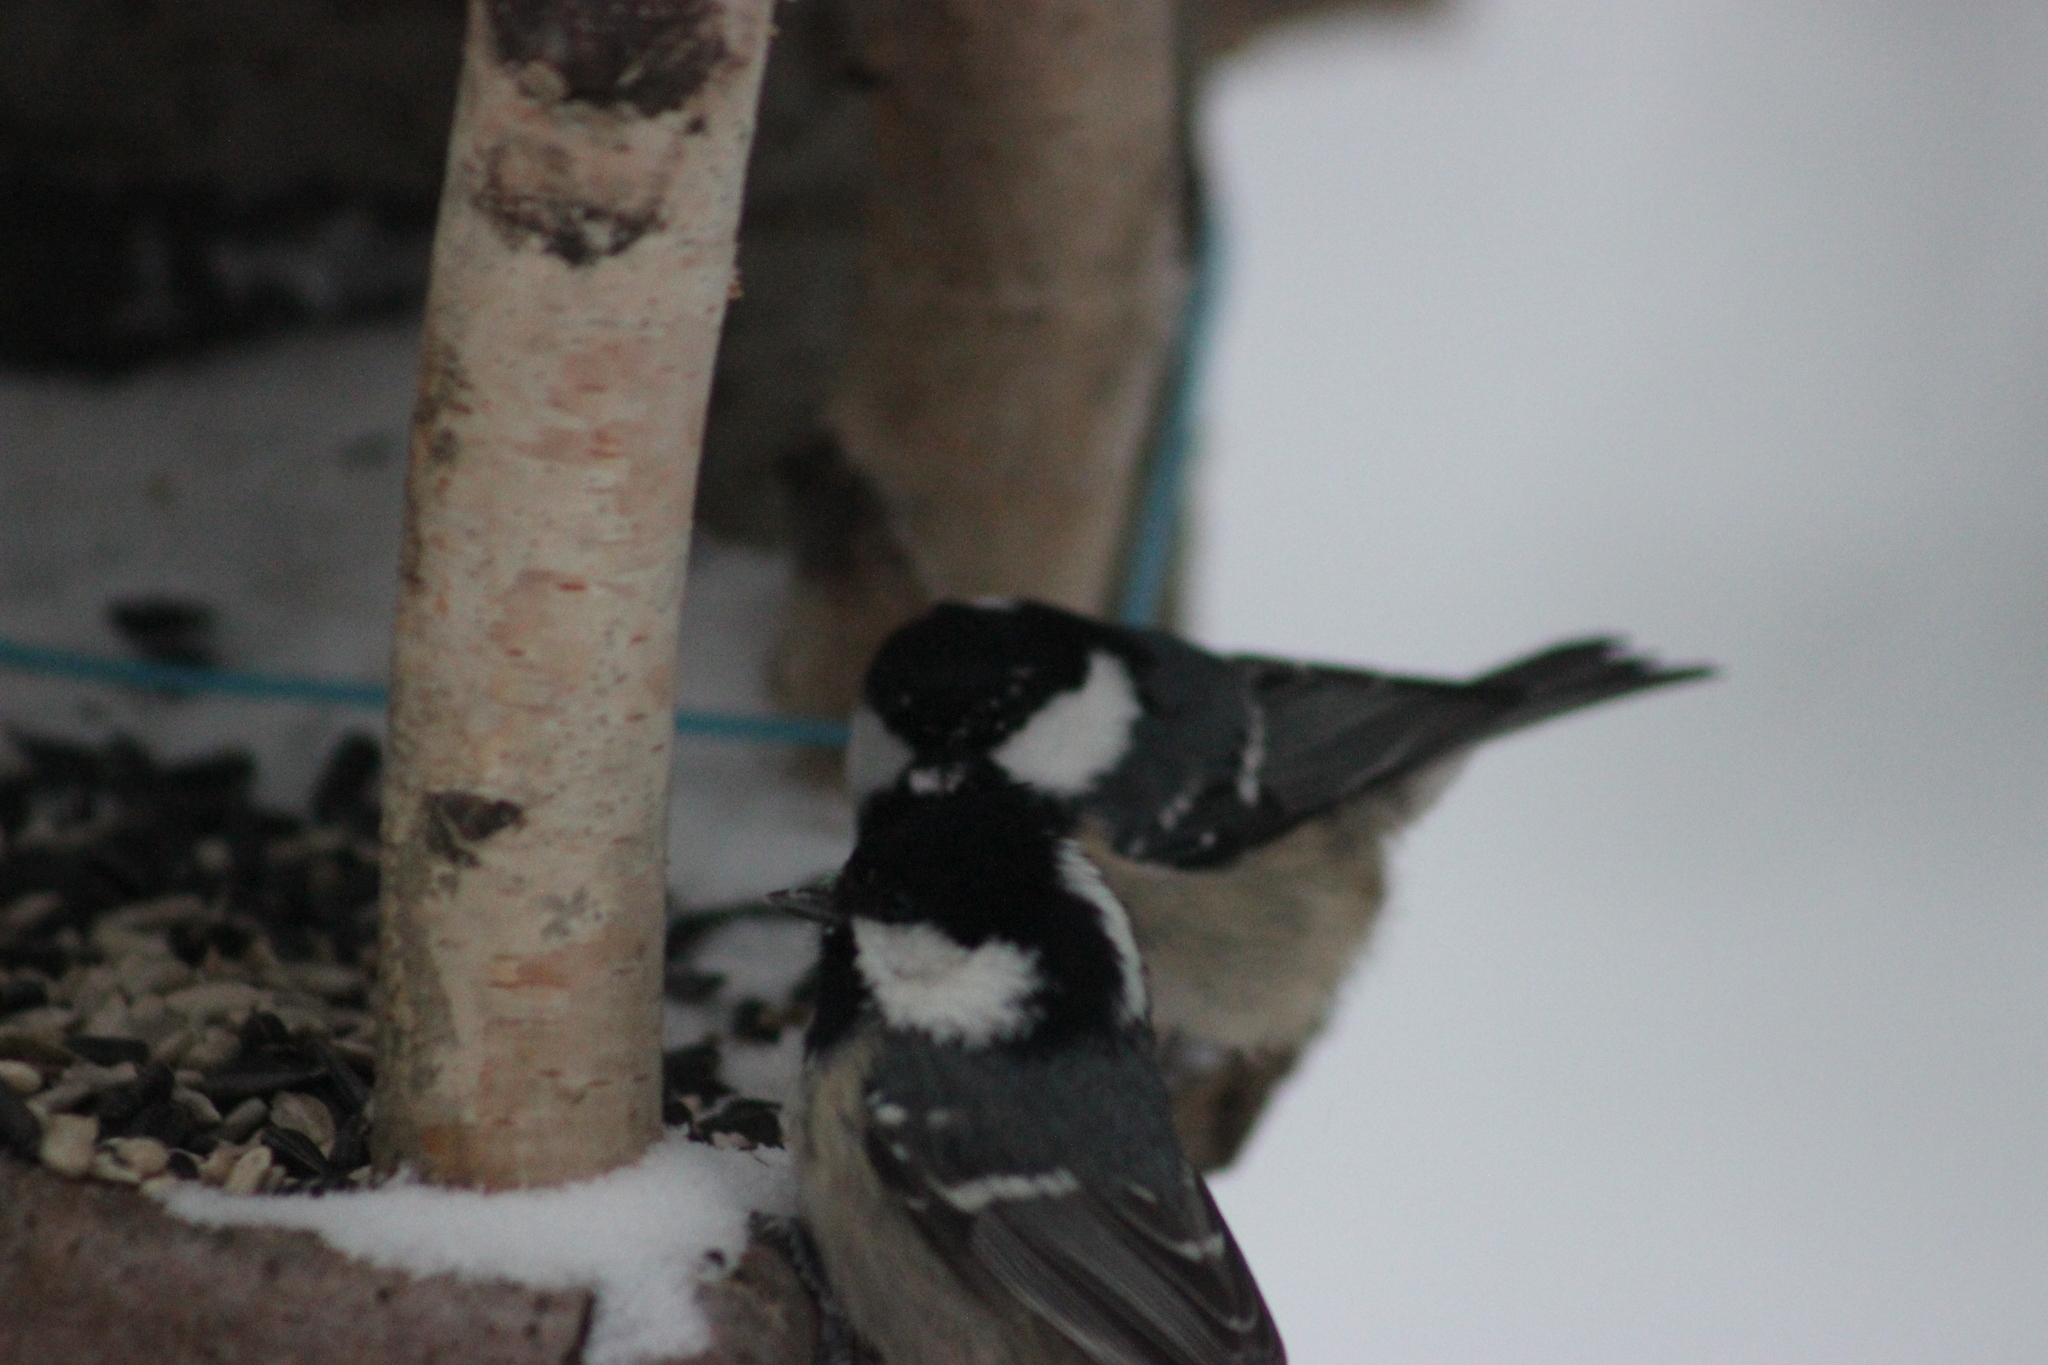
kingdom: Animalia
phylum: Chordata
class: Aves
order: Passeriformes
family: Paridae
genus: Periparus
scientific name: Periparus ater
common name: Coal tit
